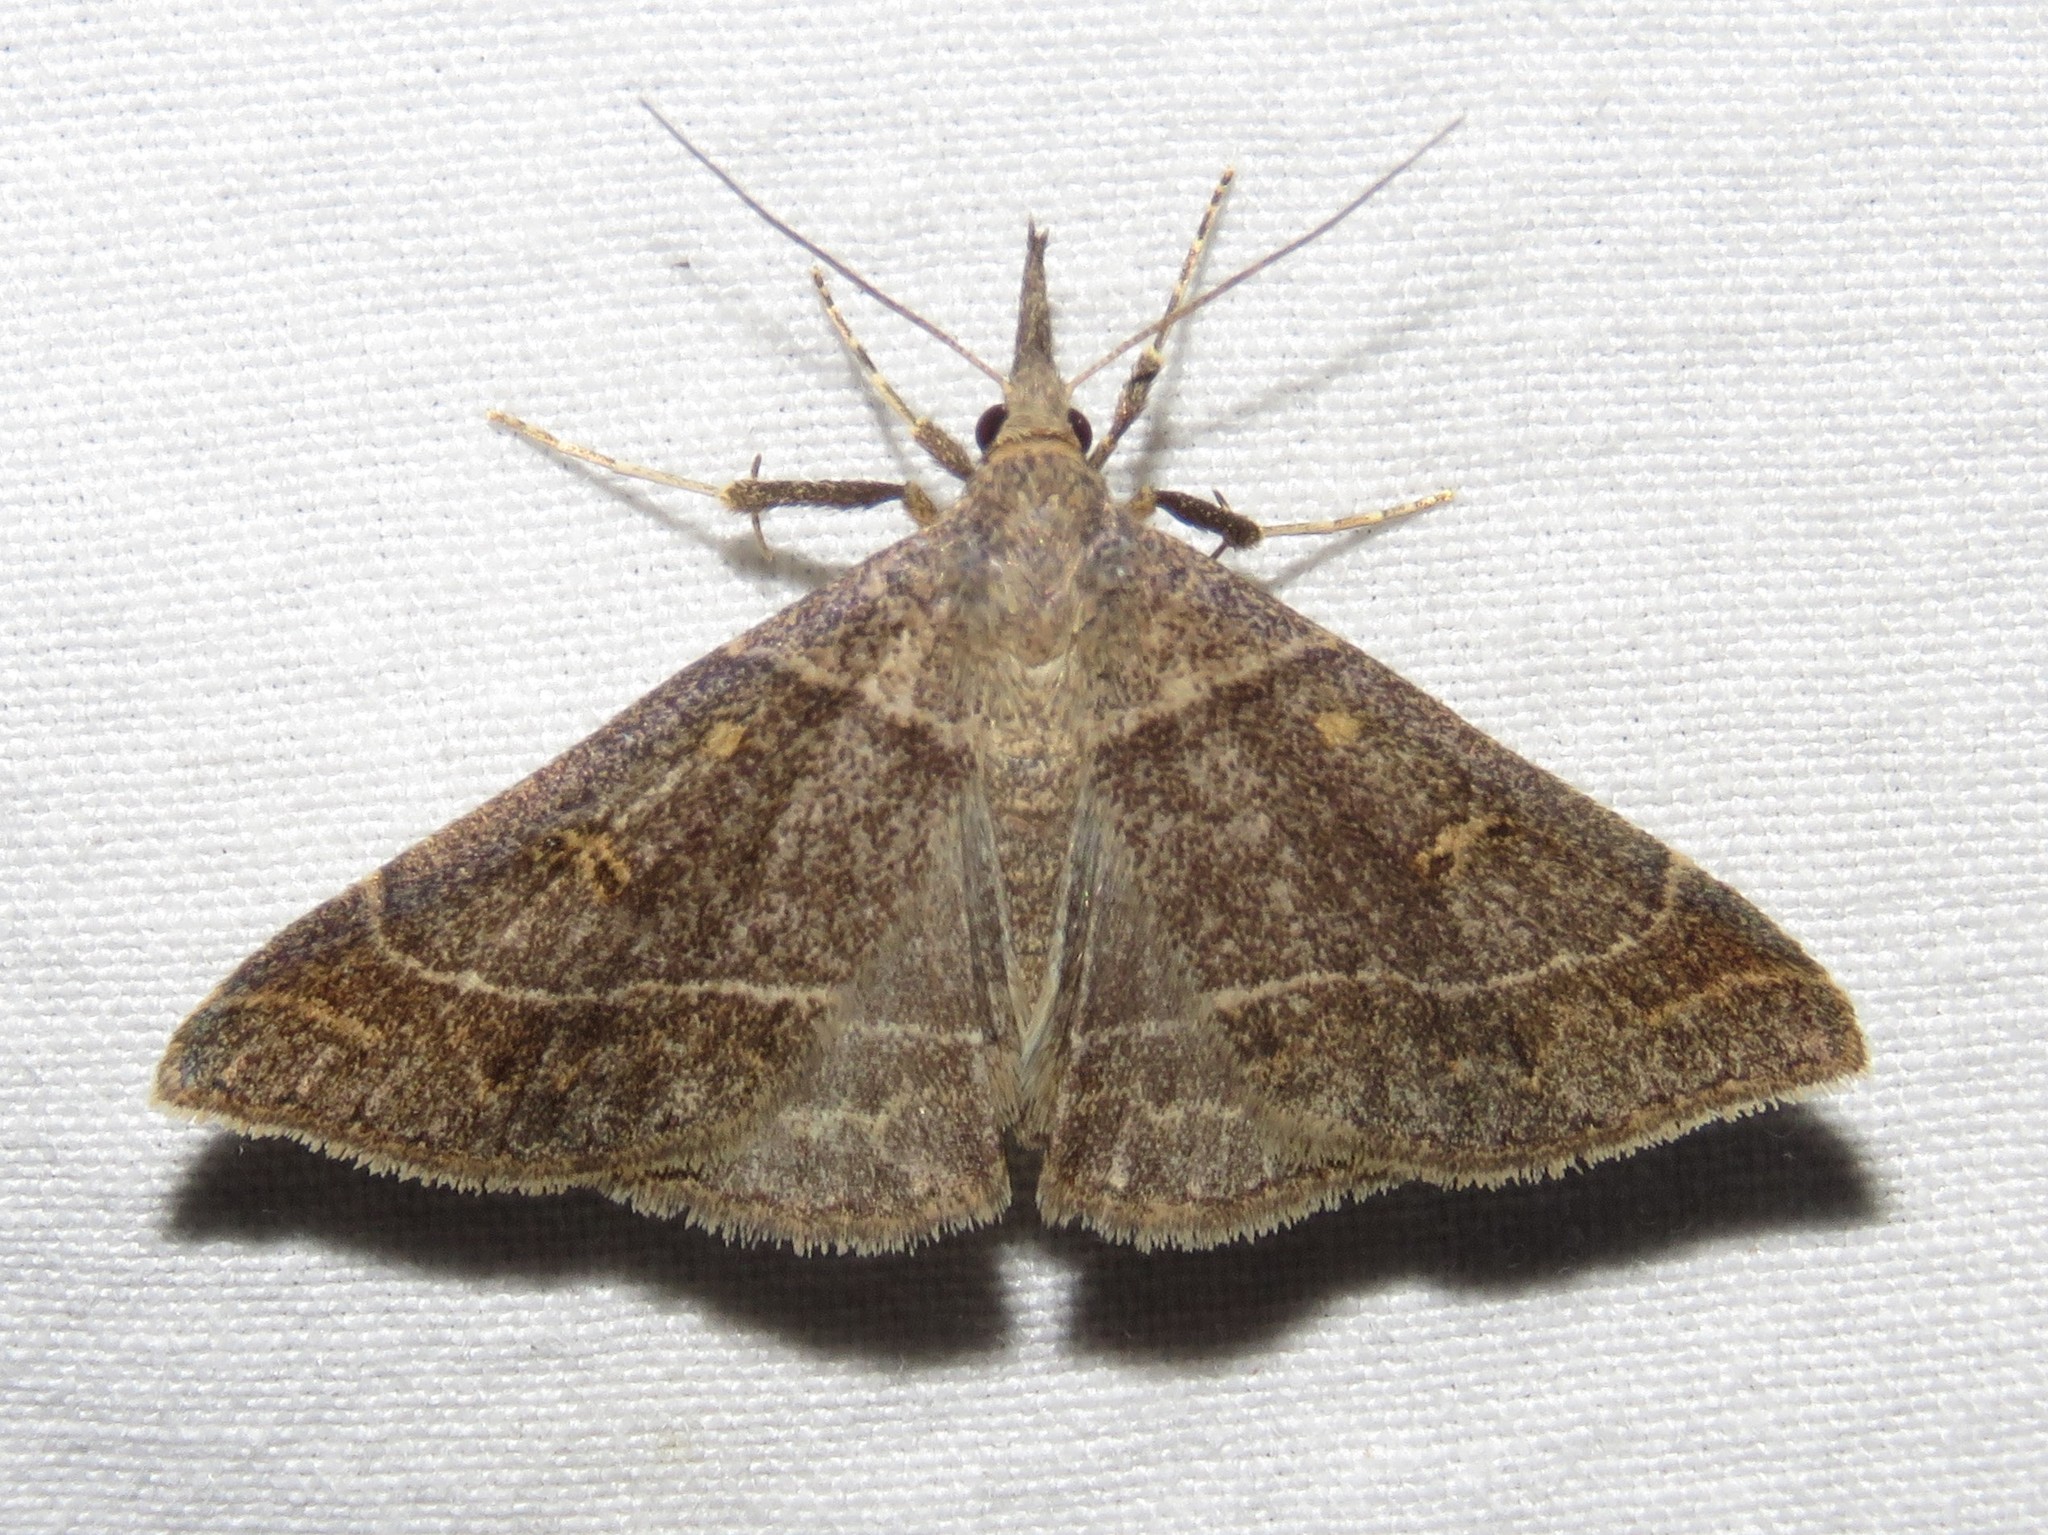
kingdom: Animalia
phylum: Arthropoda
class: Insecta
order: Lepidoptera
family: Erebidae
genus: Renia
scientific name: Renia flavipunctalis
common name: Yellow-spotted renia moth
